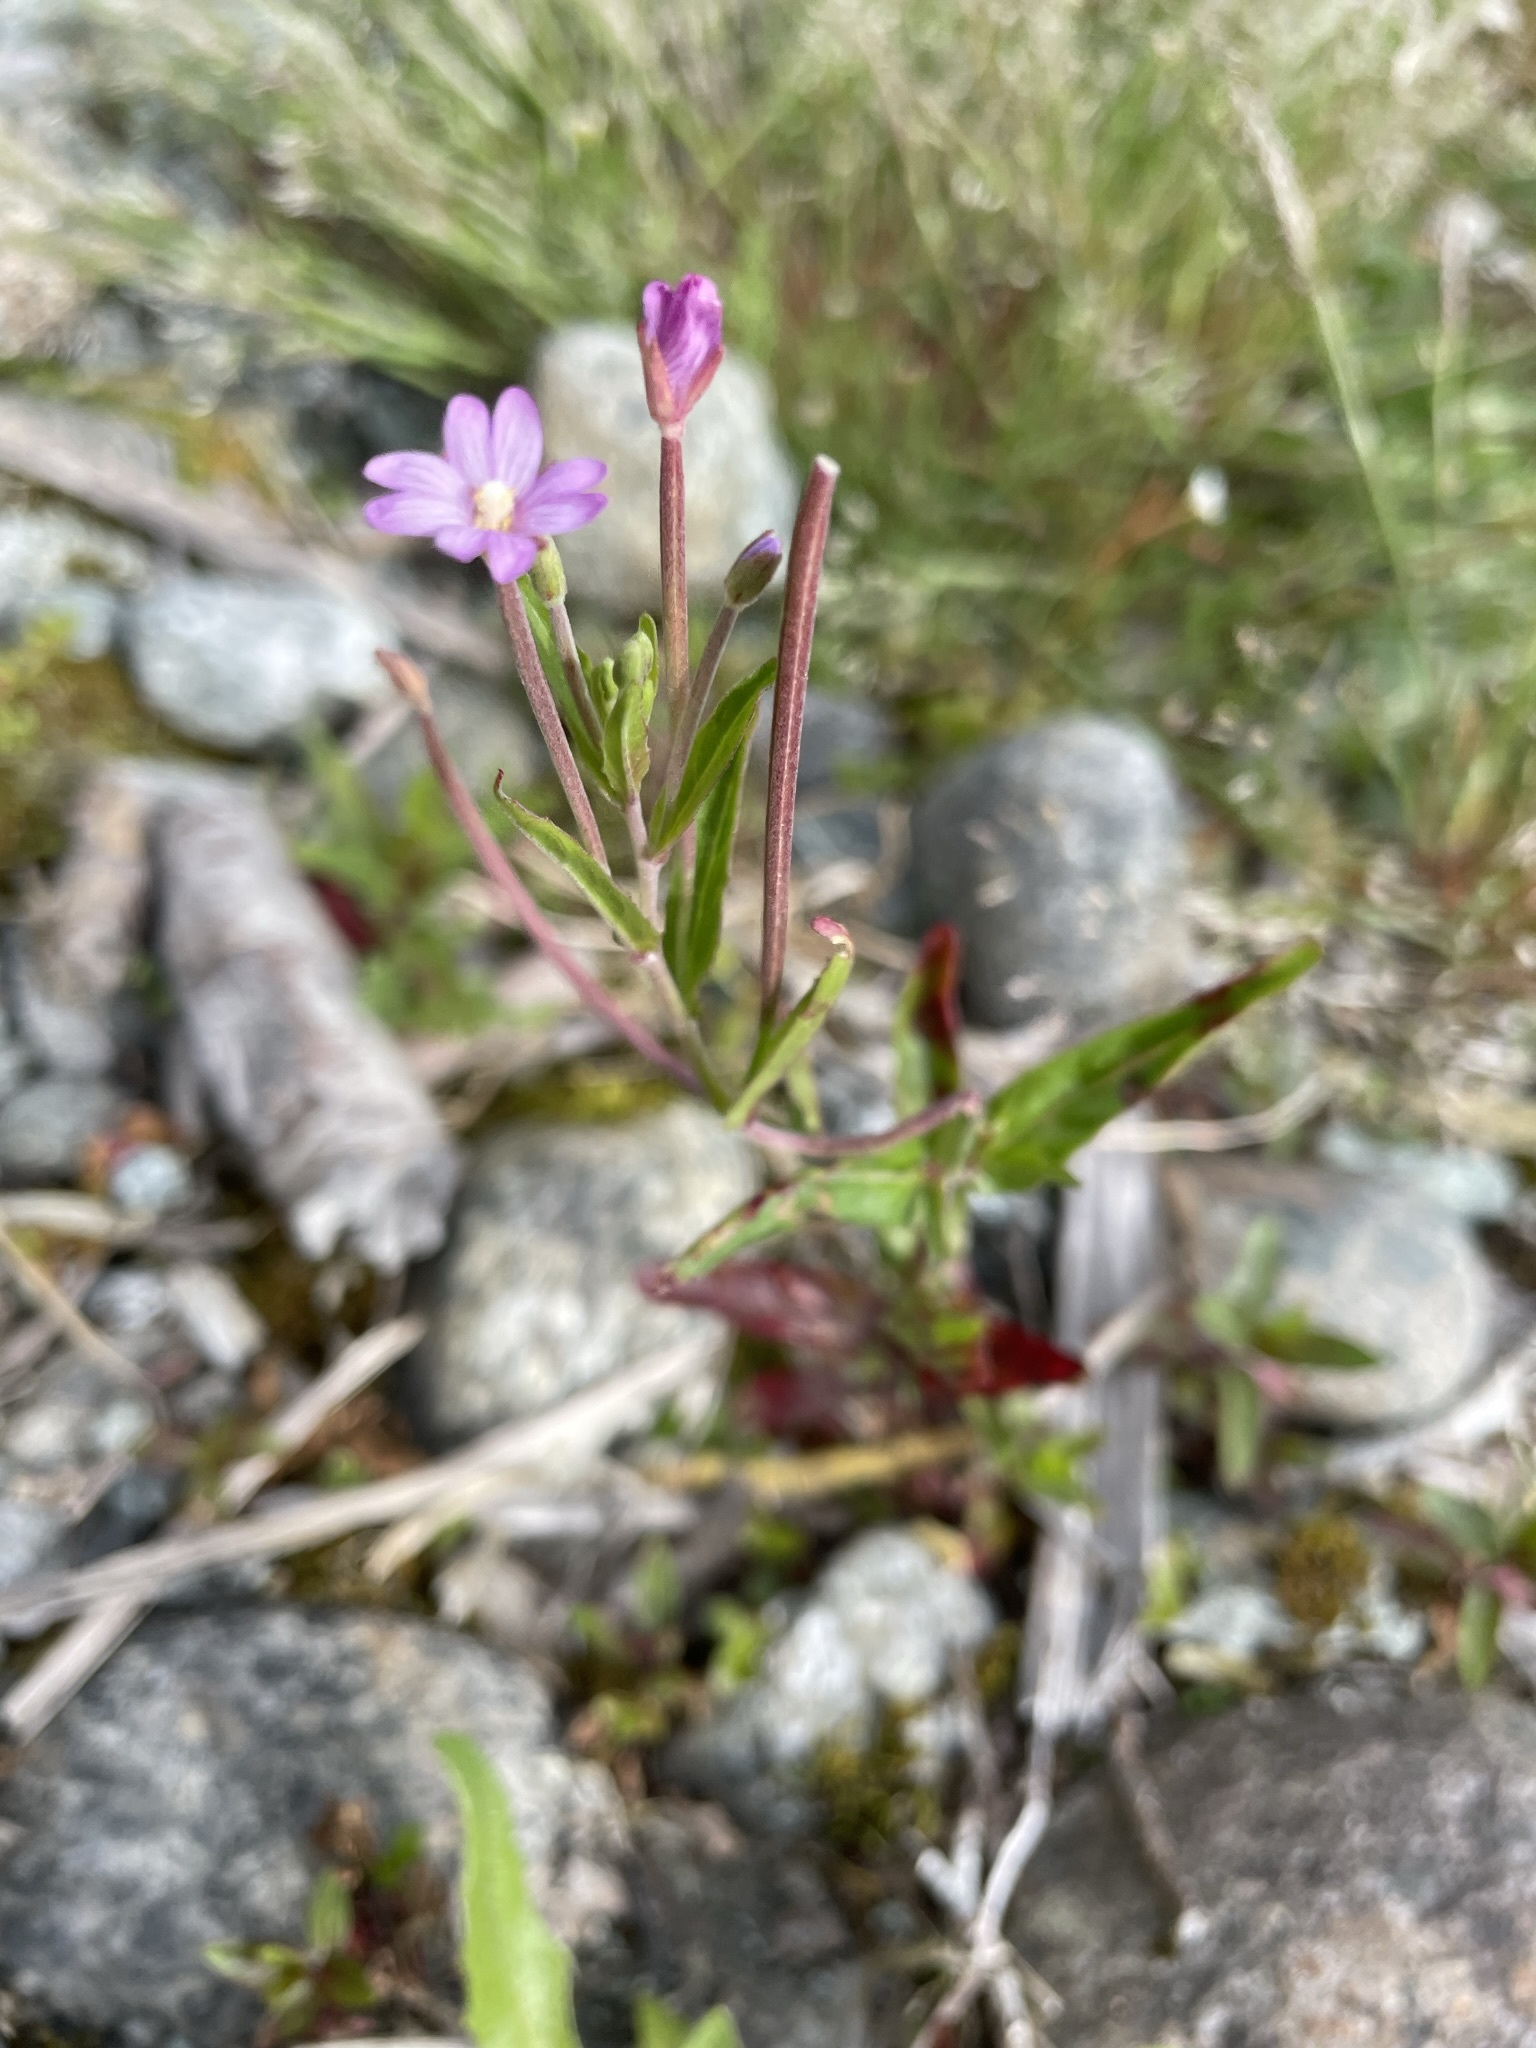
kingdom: Plantae
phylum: Tracheophyta
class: Magnoliopsida
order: Myrtales
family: Onagraceae
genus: Epilobium
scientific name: Epilobium ciliatum
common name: American willowherb
